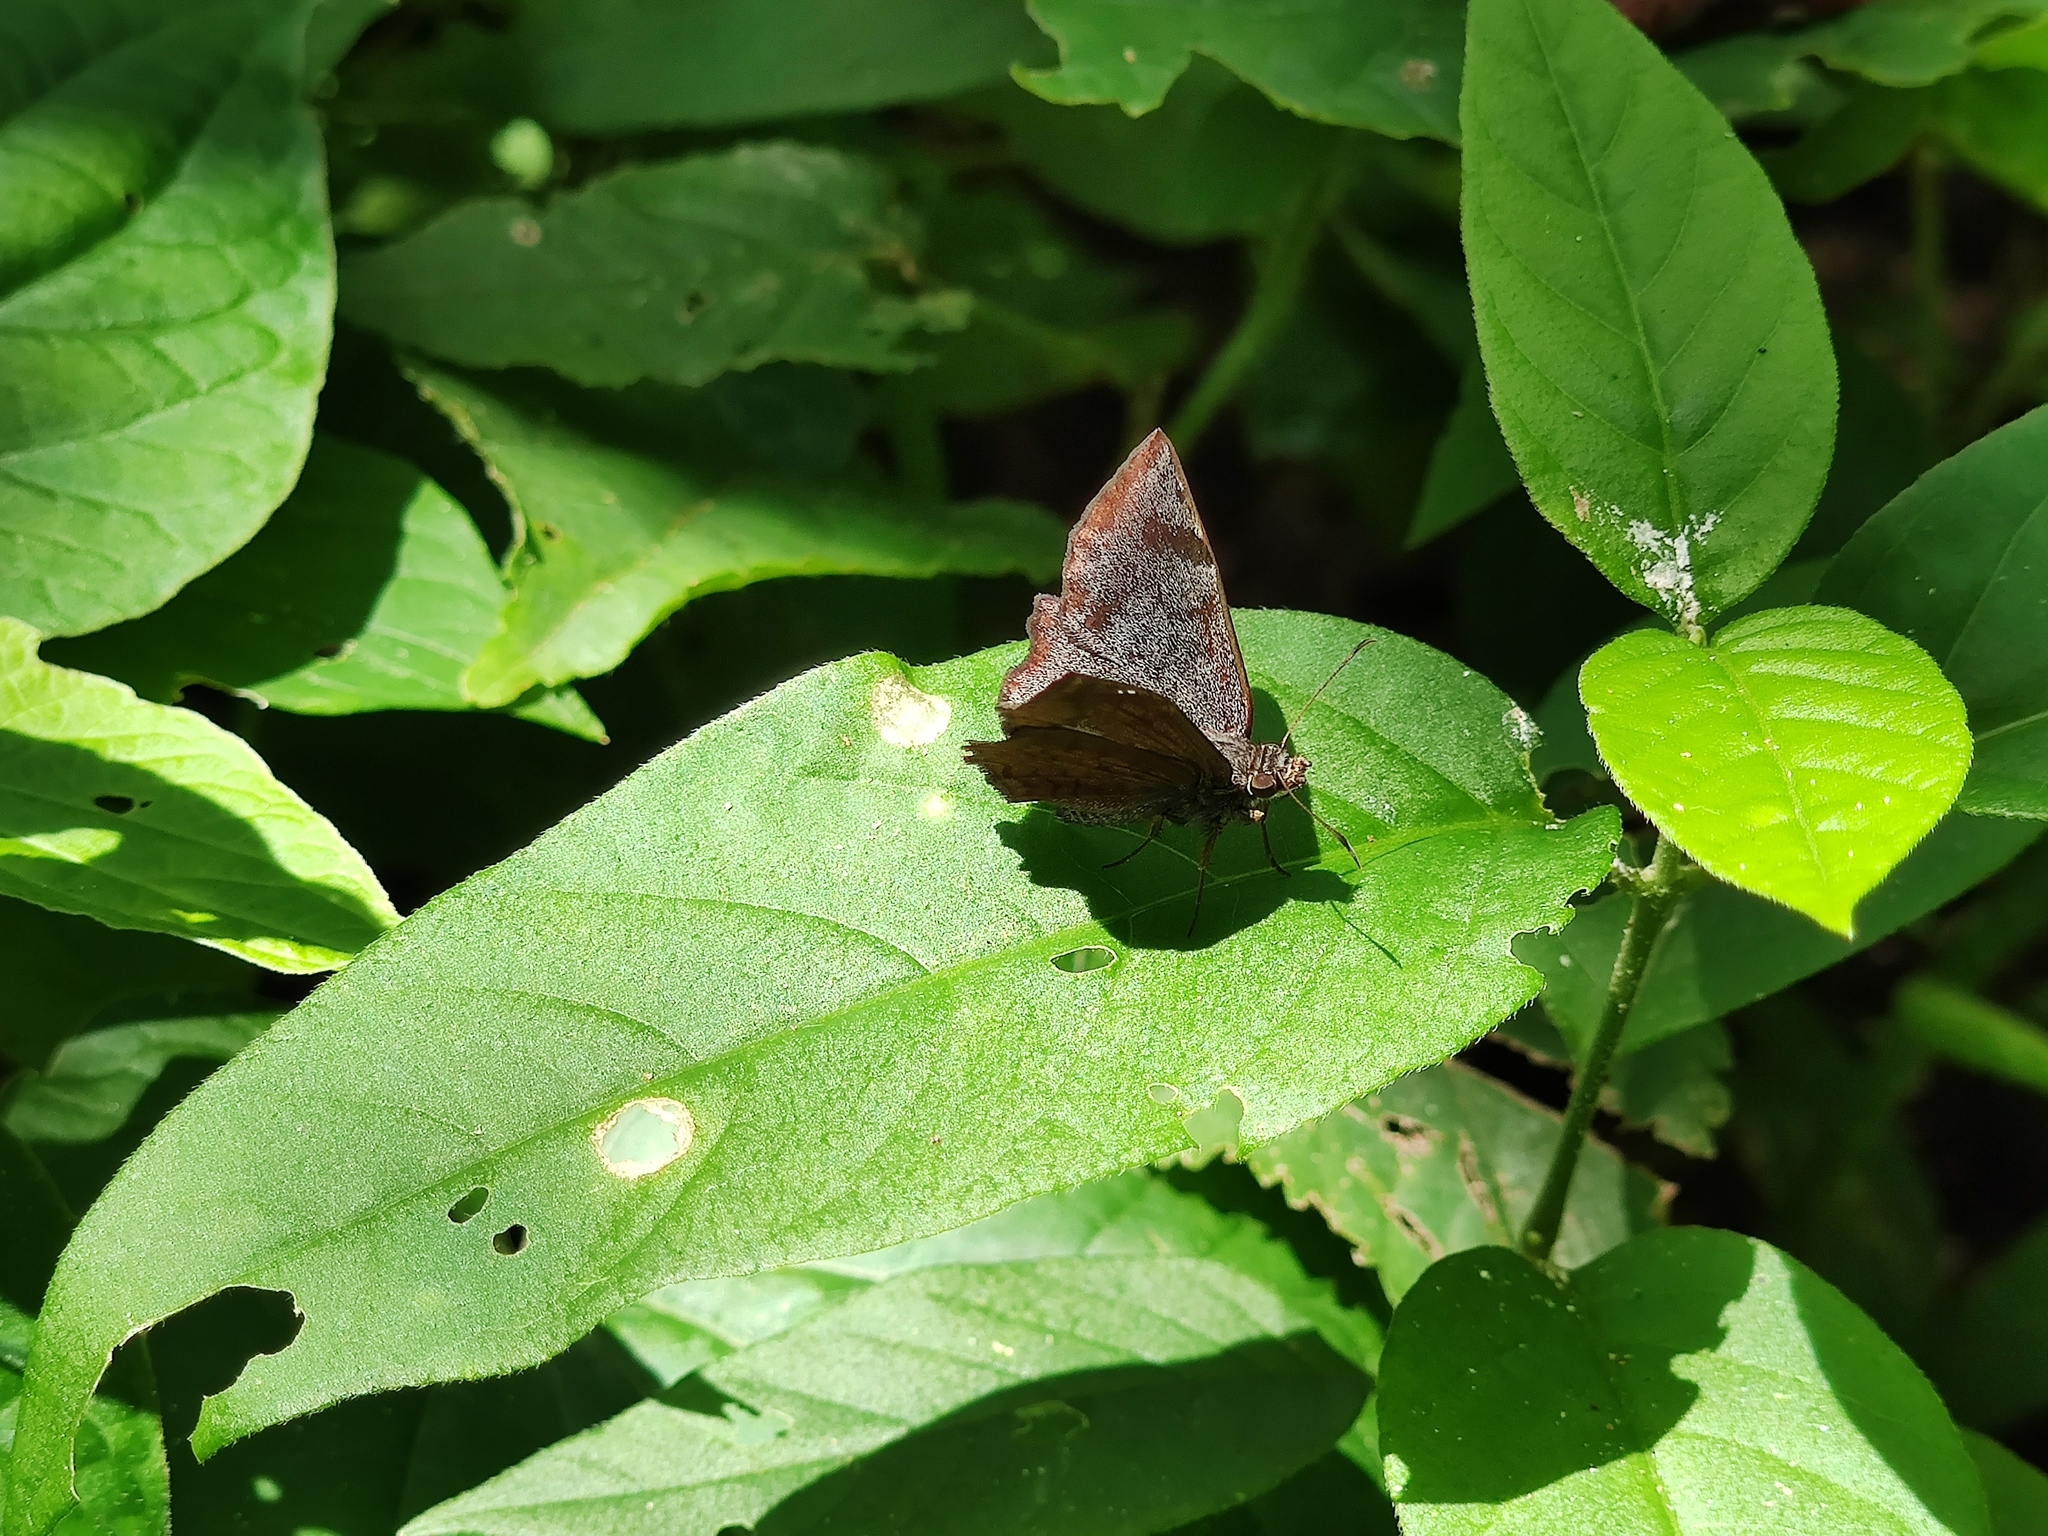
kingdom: Animalia
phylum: Arthropoda
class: Insecta
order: Lepidoptera
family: Hesperiidae
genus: Antigonus
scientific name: Antigonus erosus
